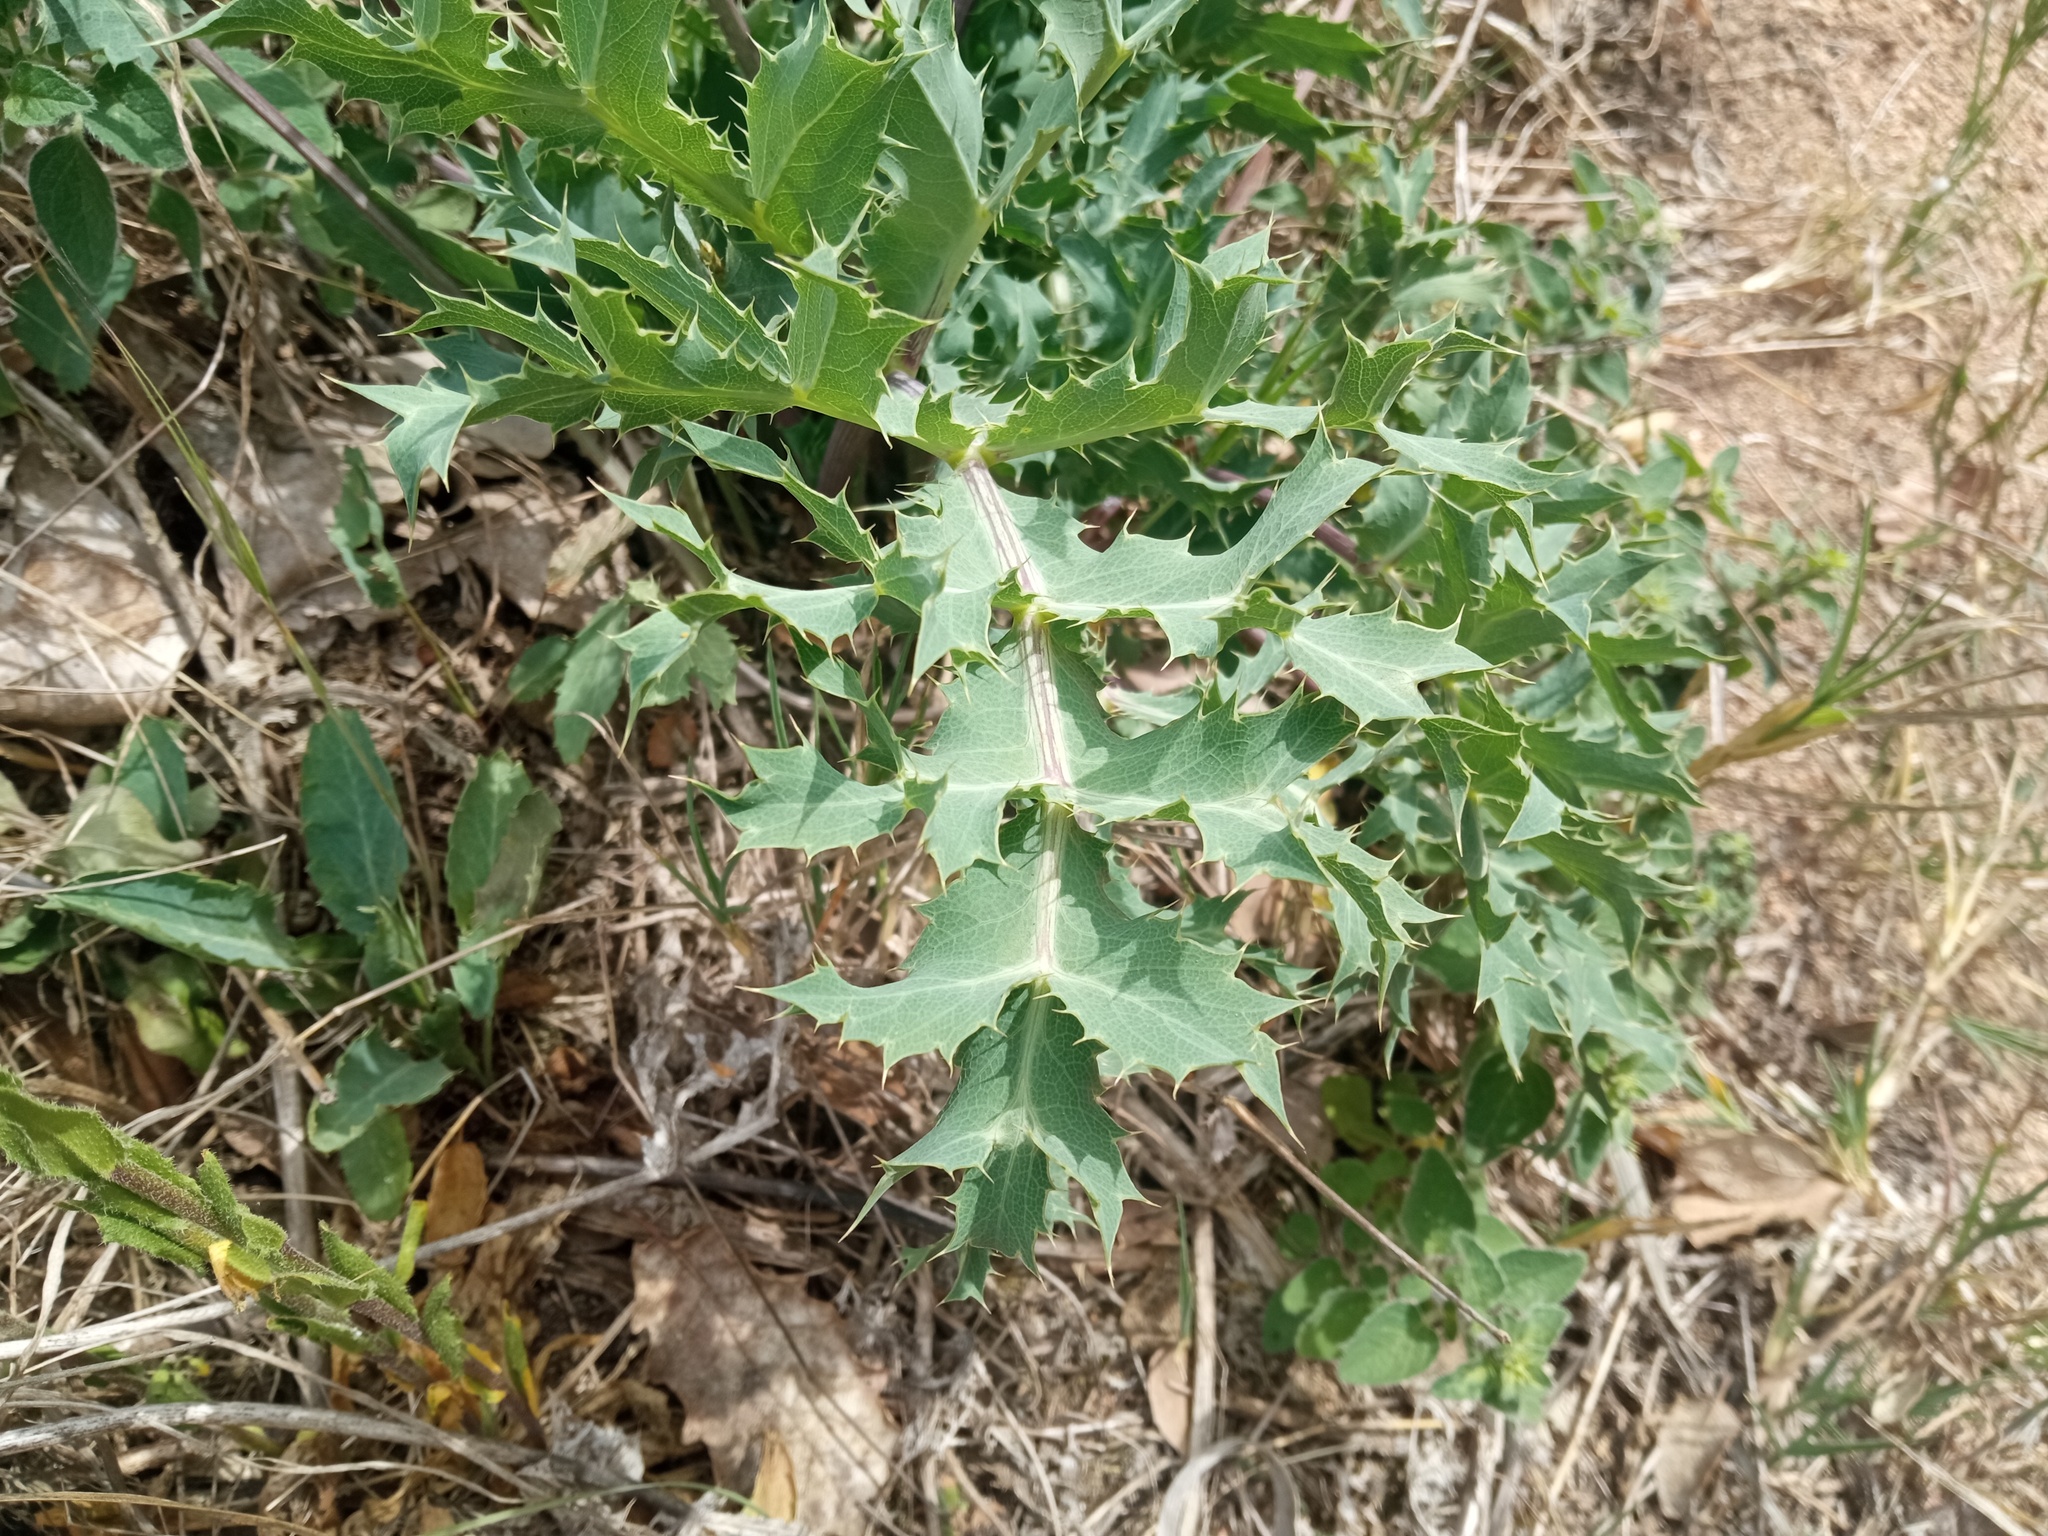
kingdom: Plantae
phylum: Tracheophyta
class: Magnoliopsida
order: Apiales
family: Apiaceae
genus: Eryngium
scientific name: Eryngium campestre
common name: Field eryngo
